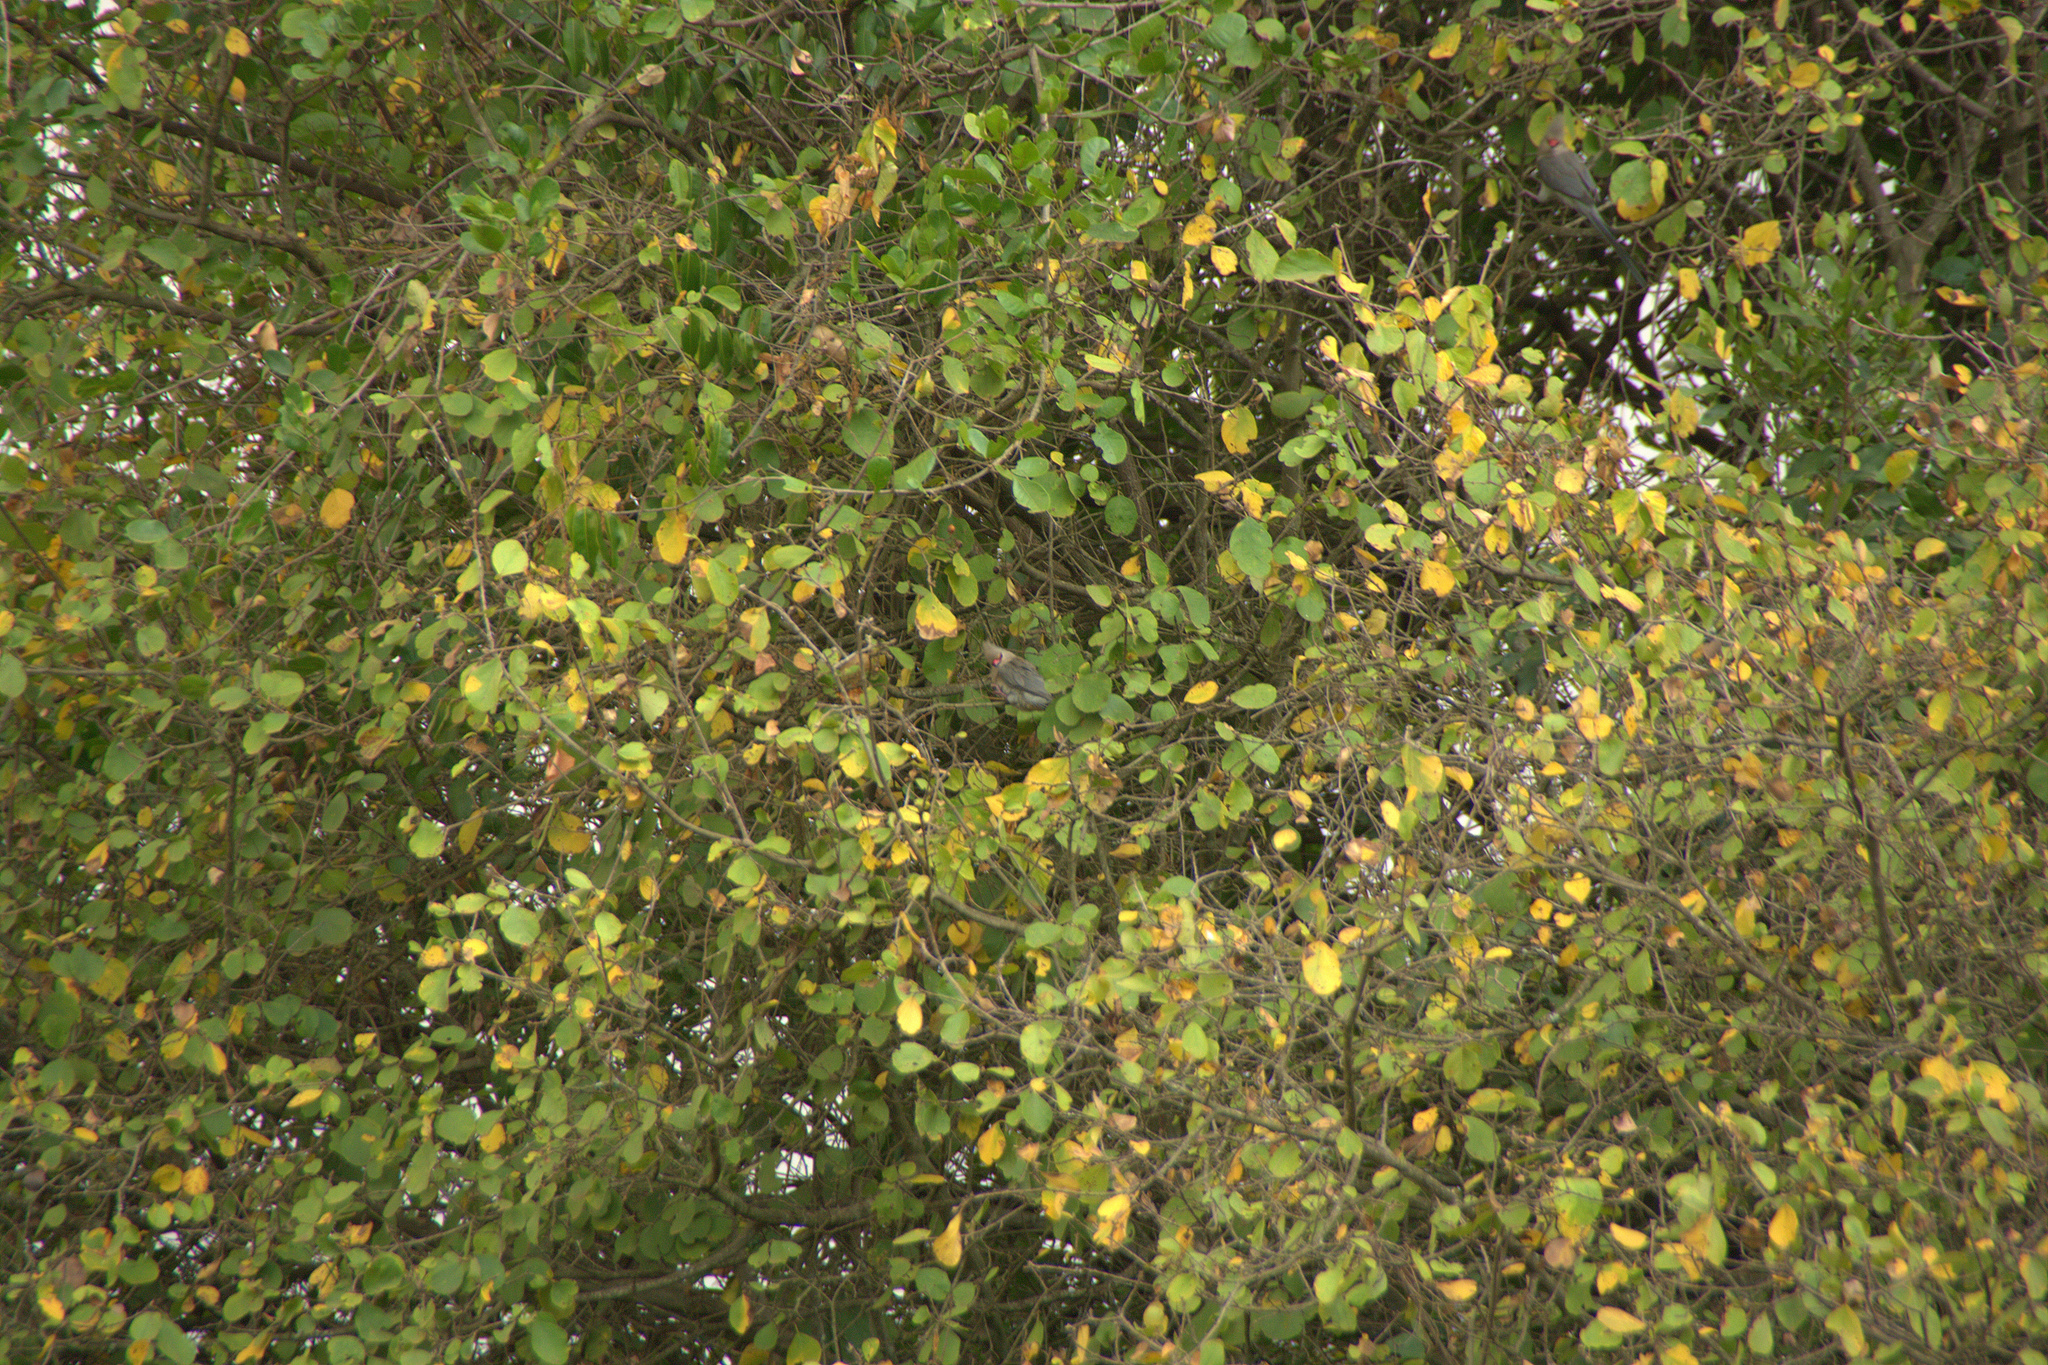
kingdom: Animalia
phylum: Chordata
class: Aves
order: Coliiformes
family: Coliidae
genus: Urocolius
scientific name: Urocolius macrourus
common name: Blue-naped mousebird
